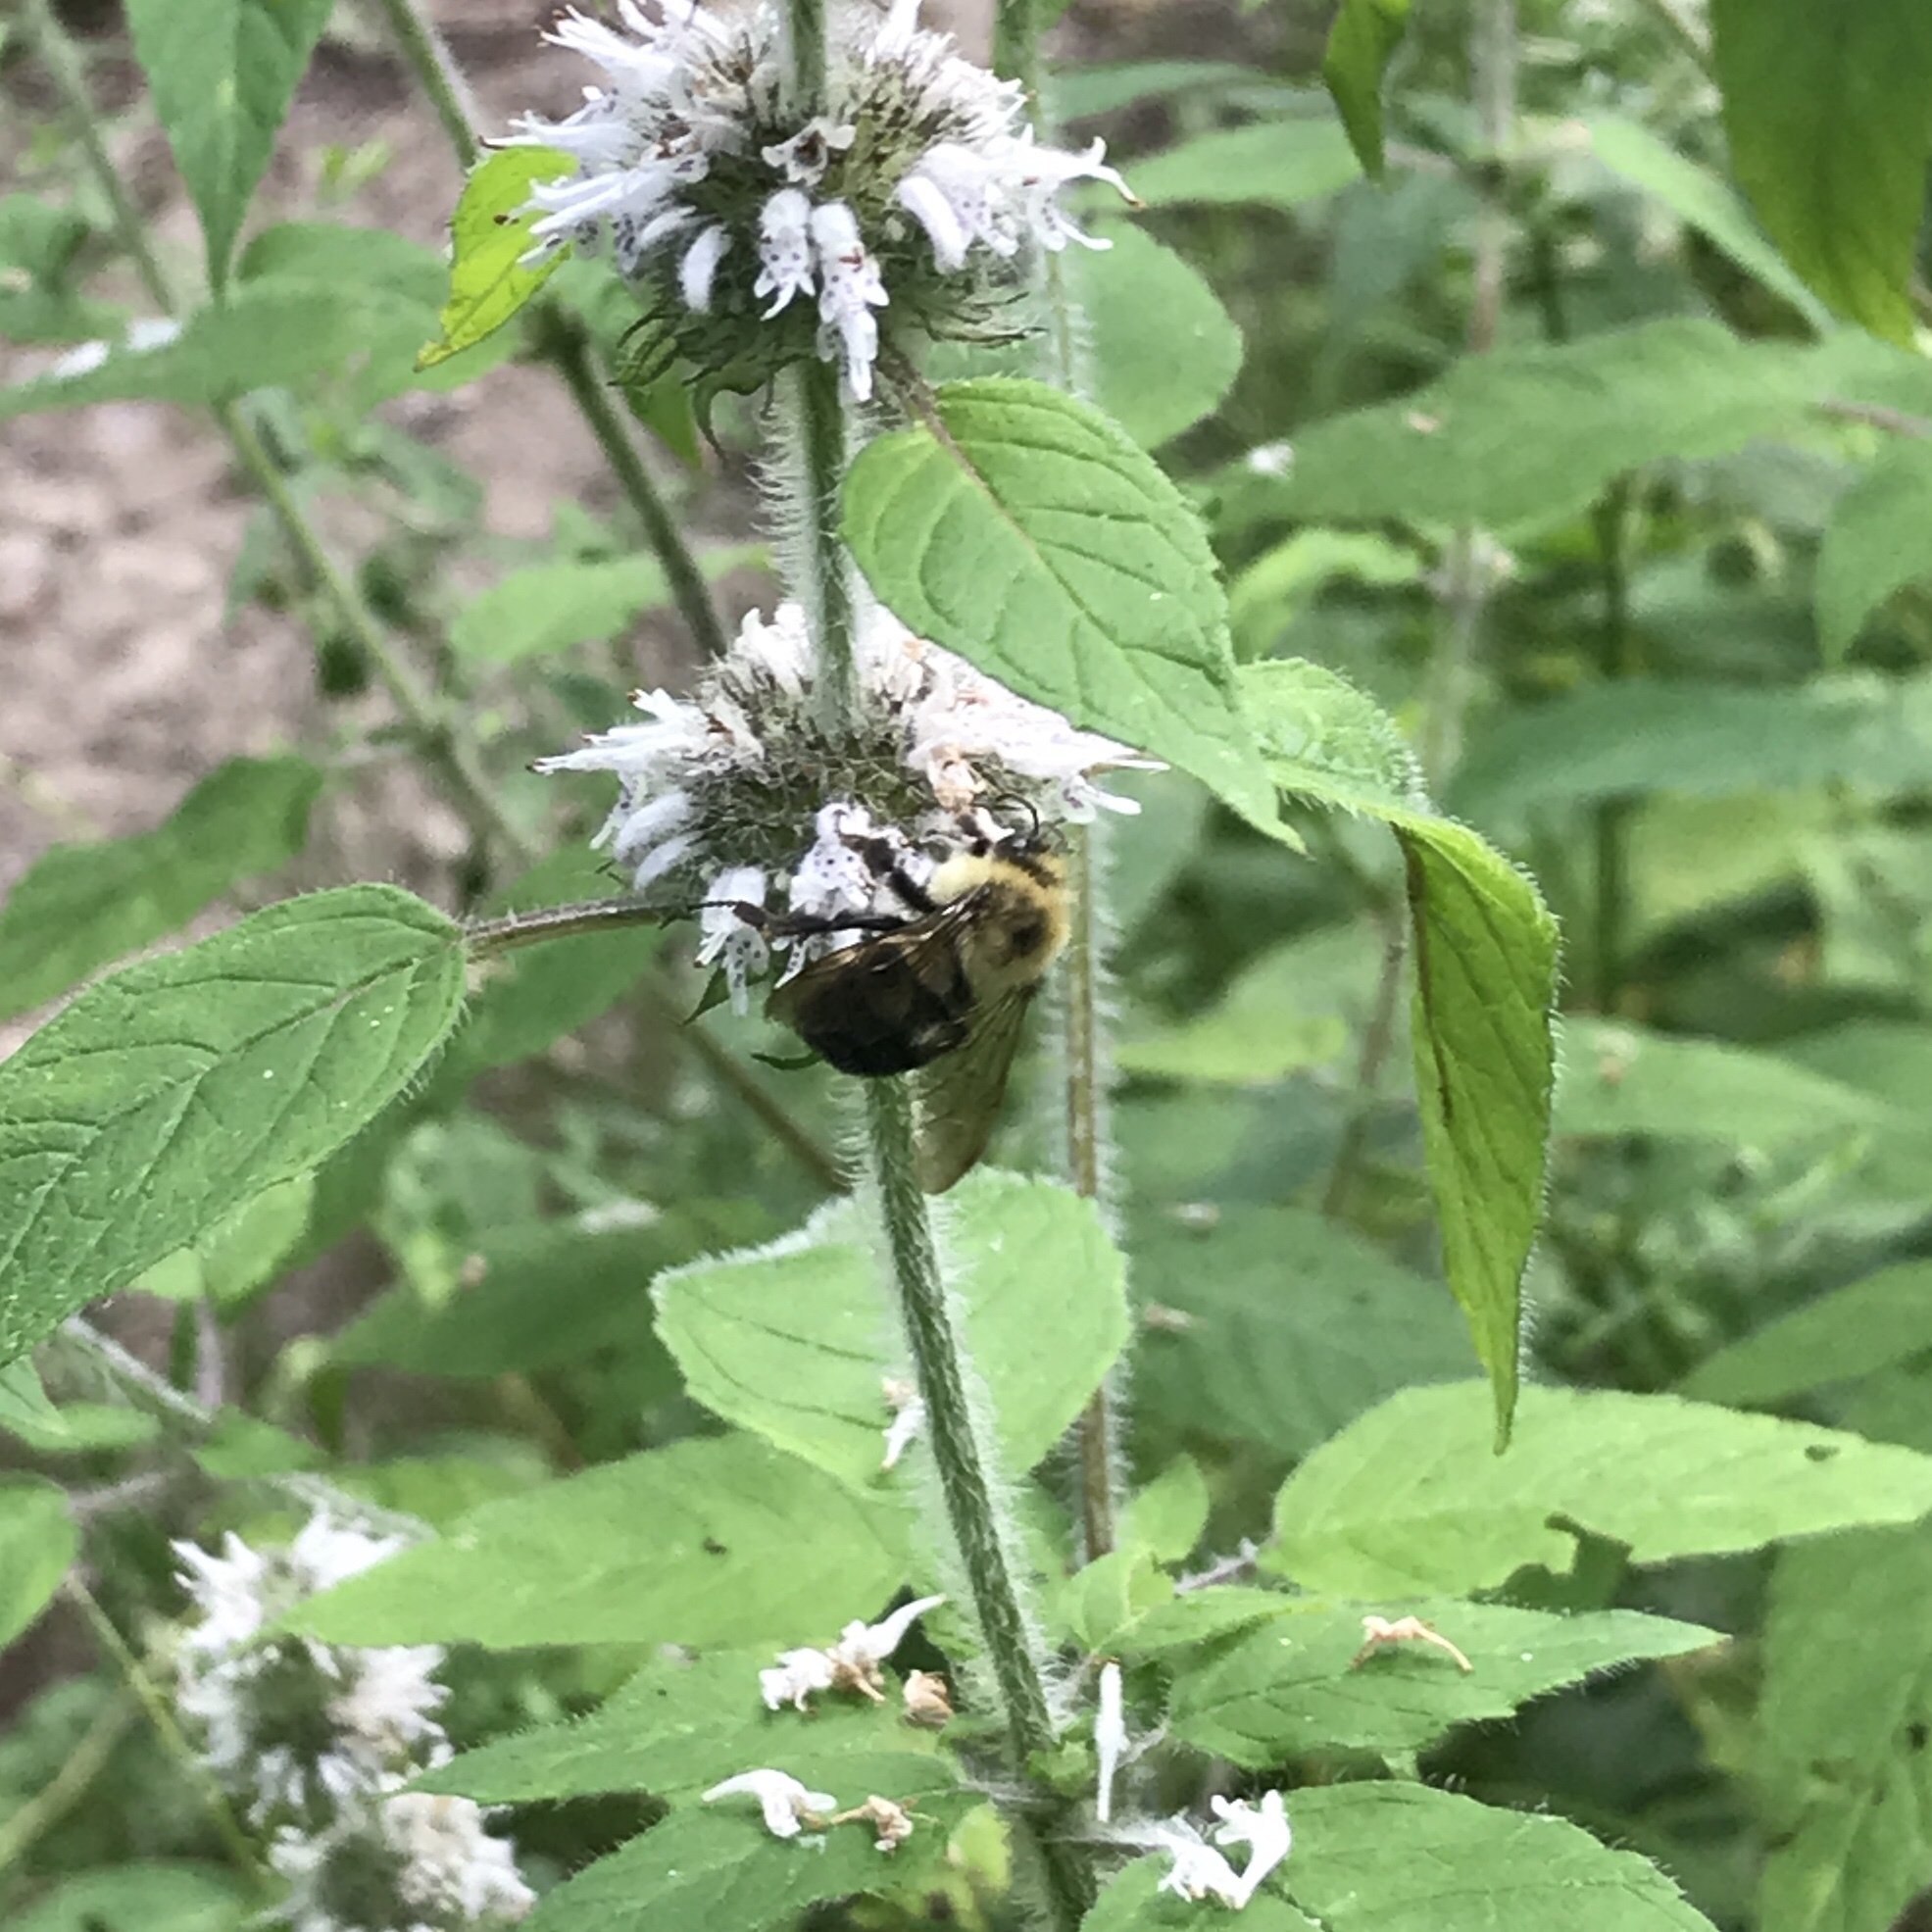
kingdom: Animalia
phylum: Arthropoda
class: Insecta
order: Hymenoptera
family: Apidae
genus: Bombus
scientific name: Bombus bimaculatus
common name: Two-spotted bumble bee
